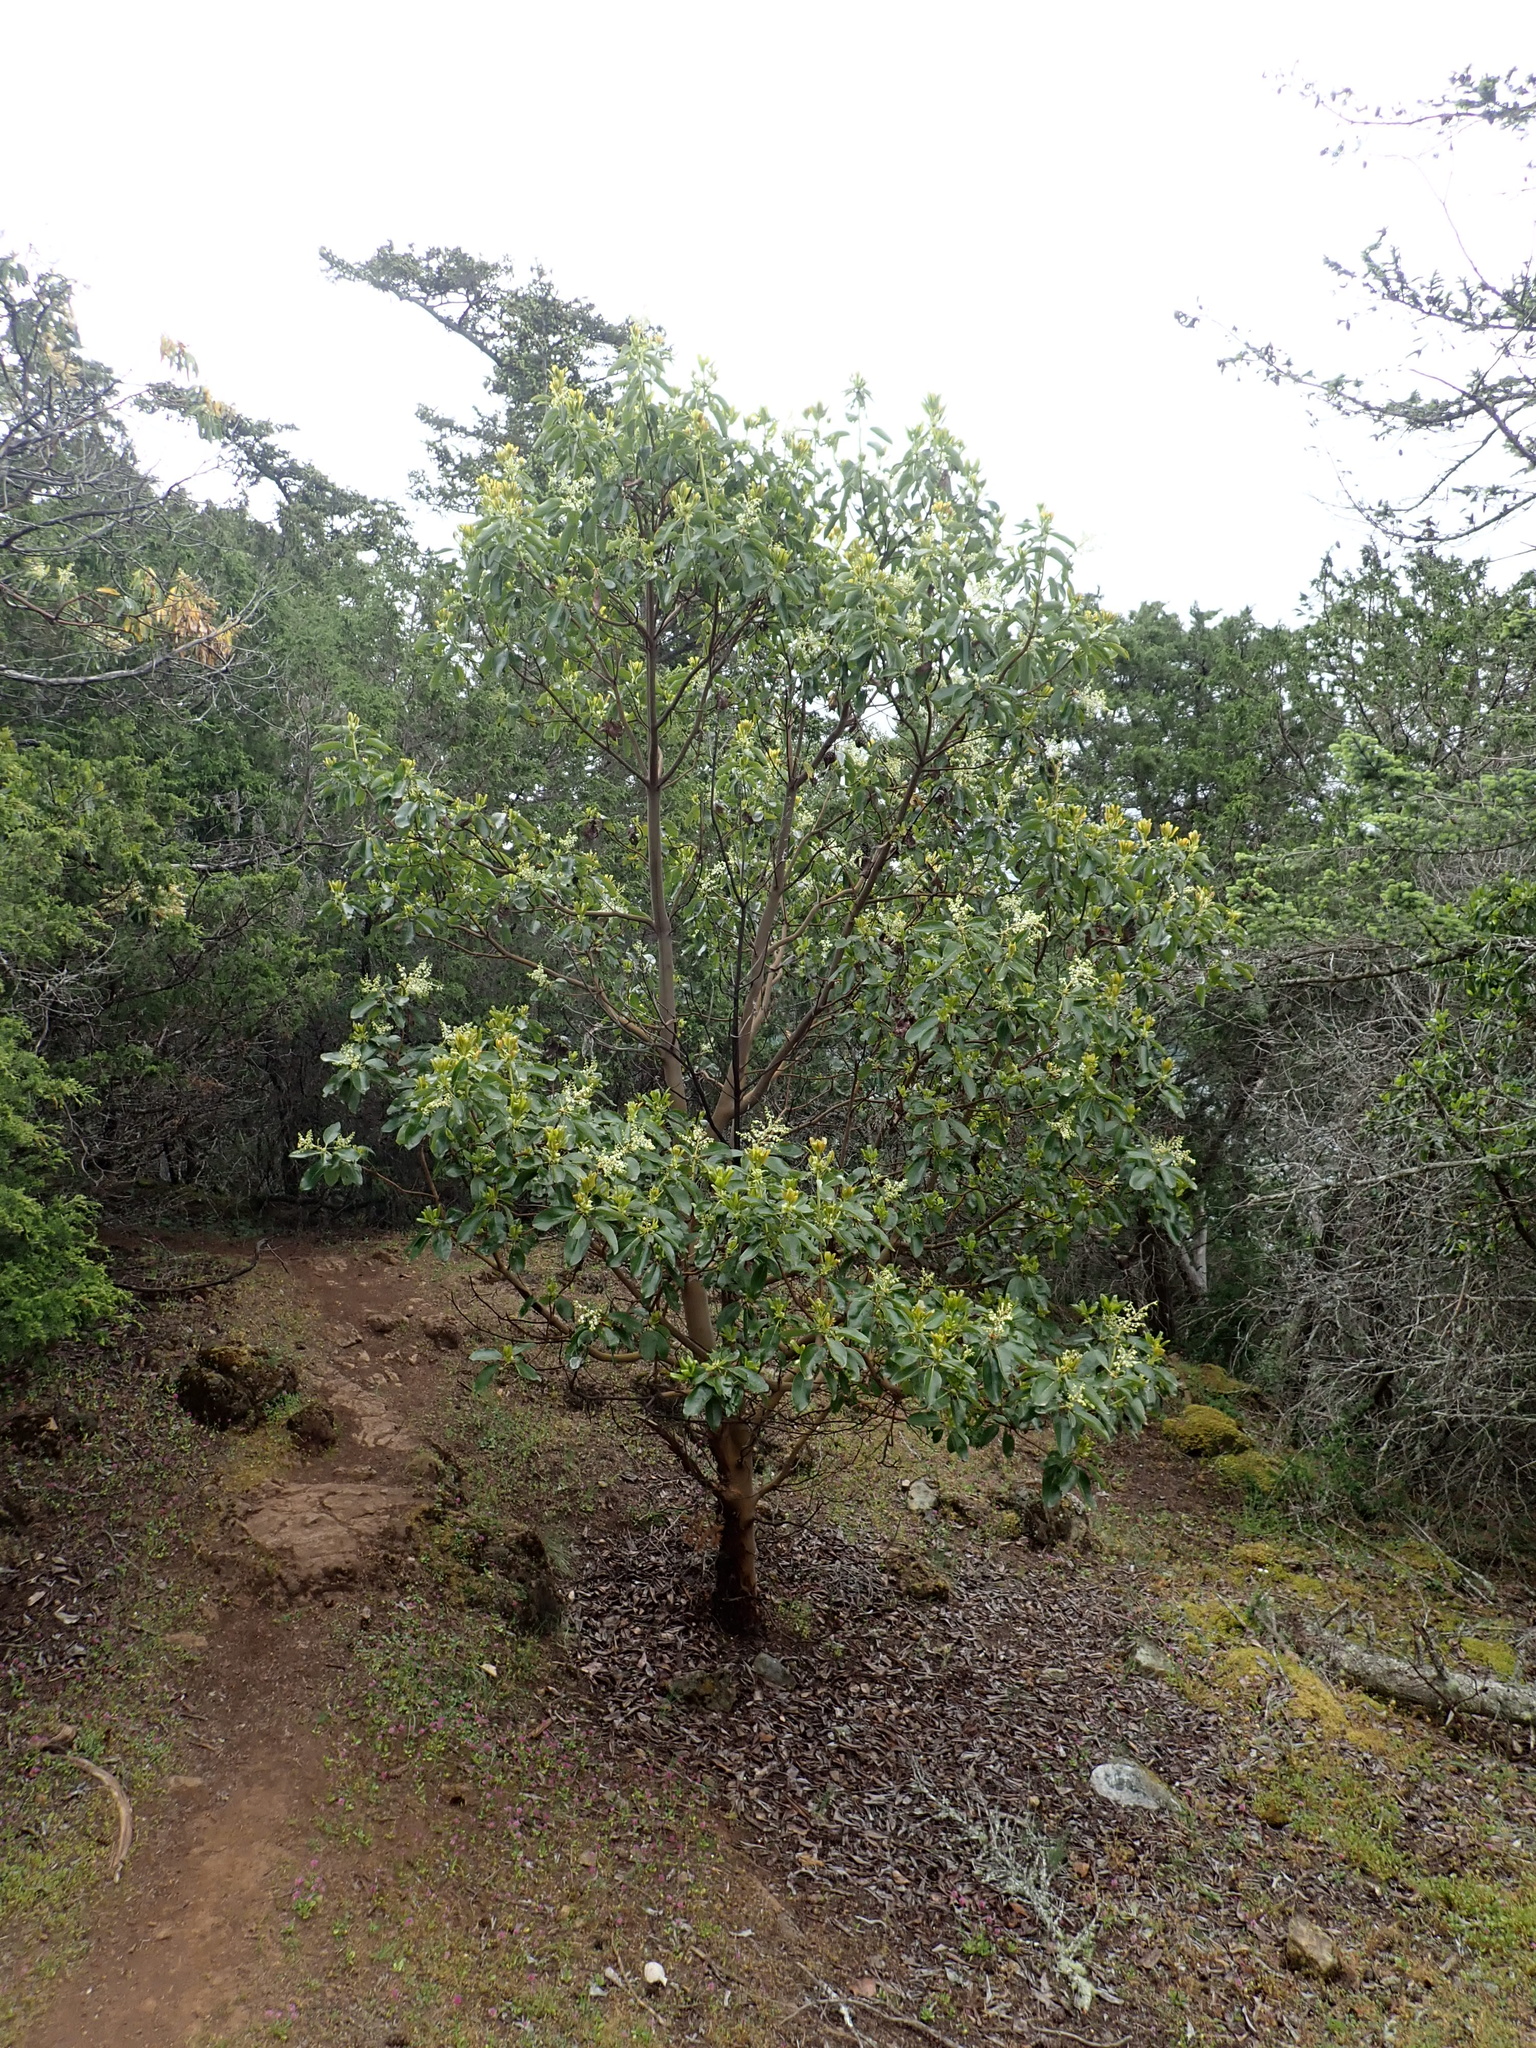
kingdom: Plantae
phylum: Tracheophyta
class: Magnoliopsida
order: Ericales
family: Ericaceae
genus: Arbutus
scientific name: Arbutus menziesii
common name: Pacific madrone
